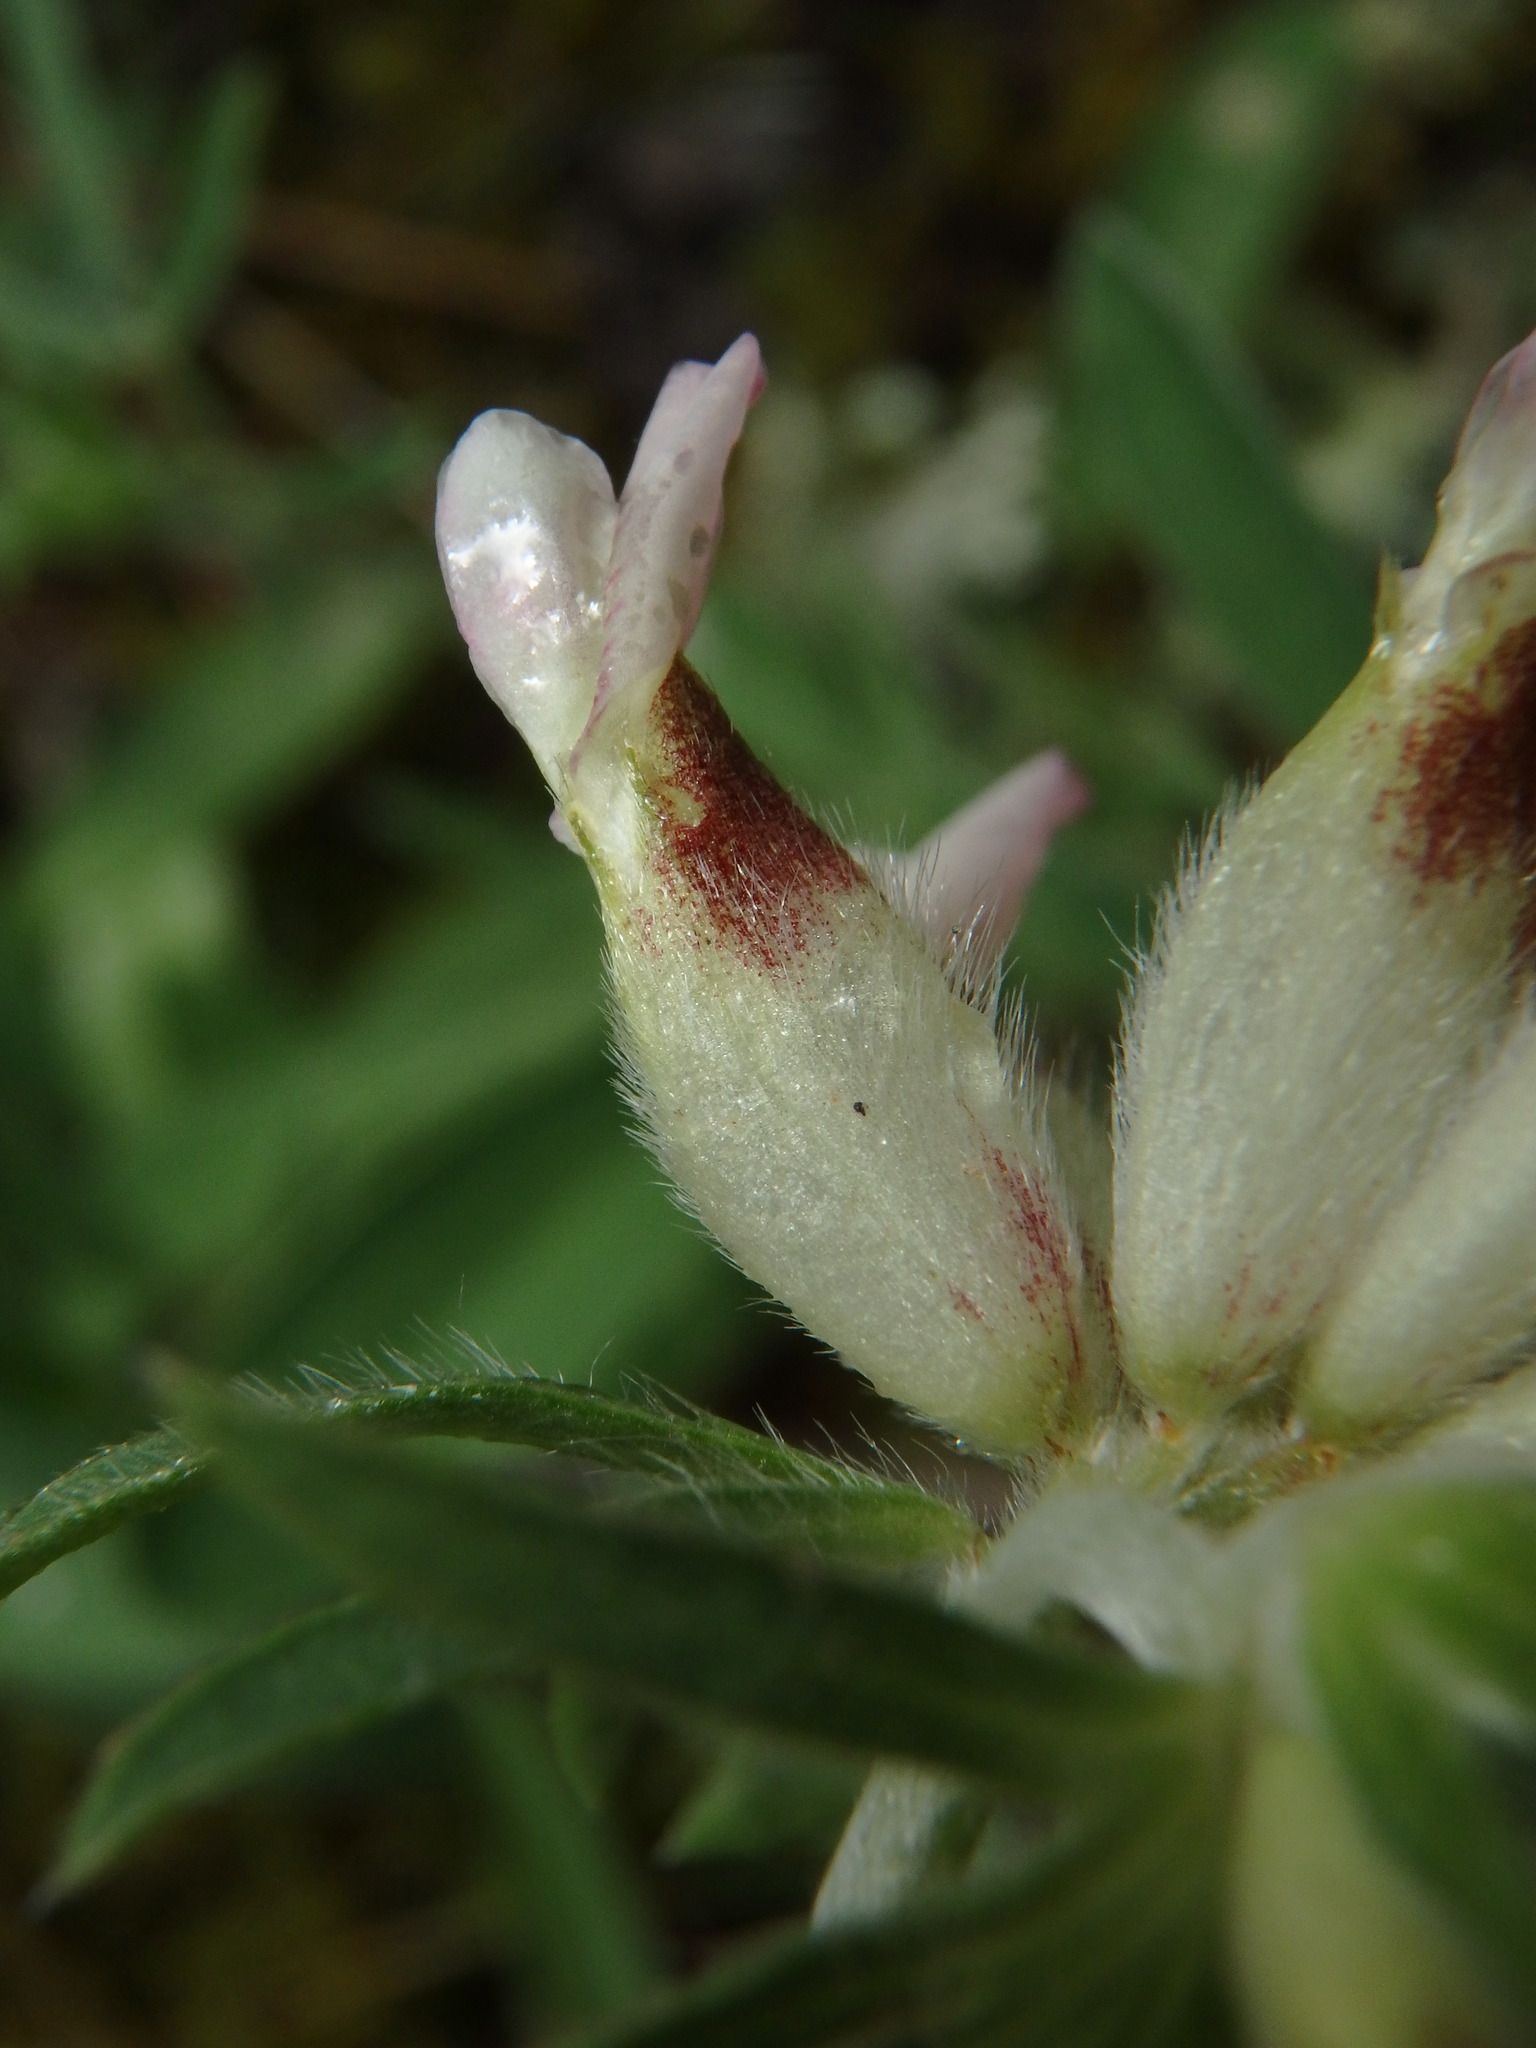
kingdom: Plantae
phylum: Tracheophyta
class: Magnoliopsida
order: Fabales
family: Fabaceae
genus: Anthyllis
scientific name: Anthyllis vulneraria
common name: Kidney vetch
